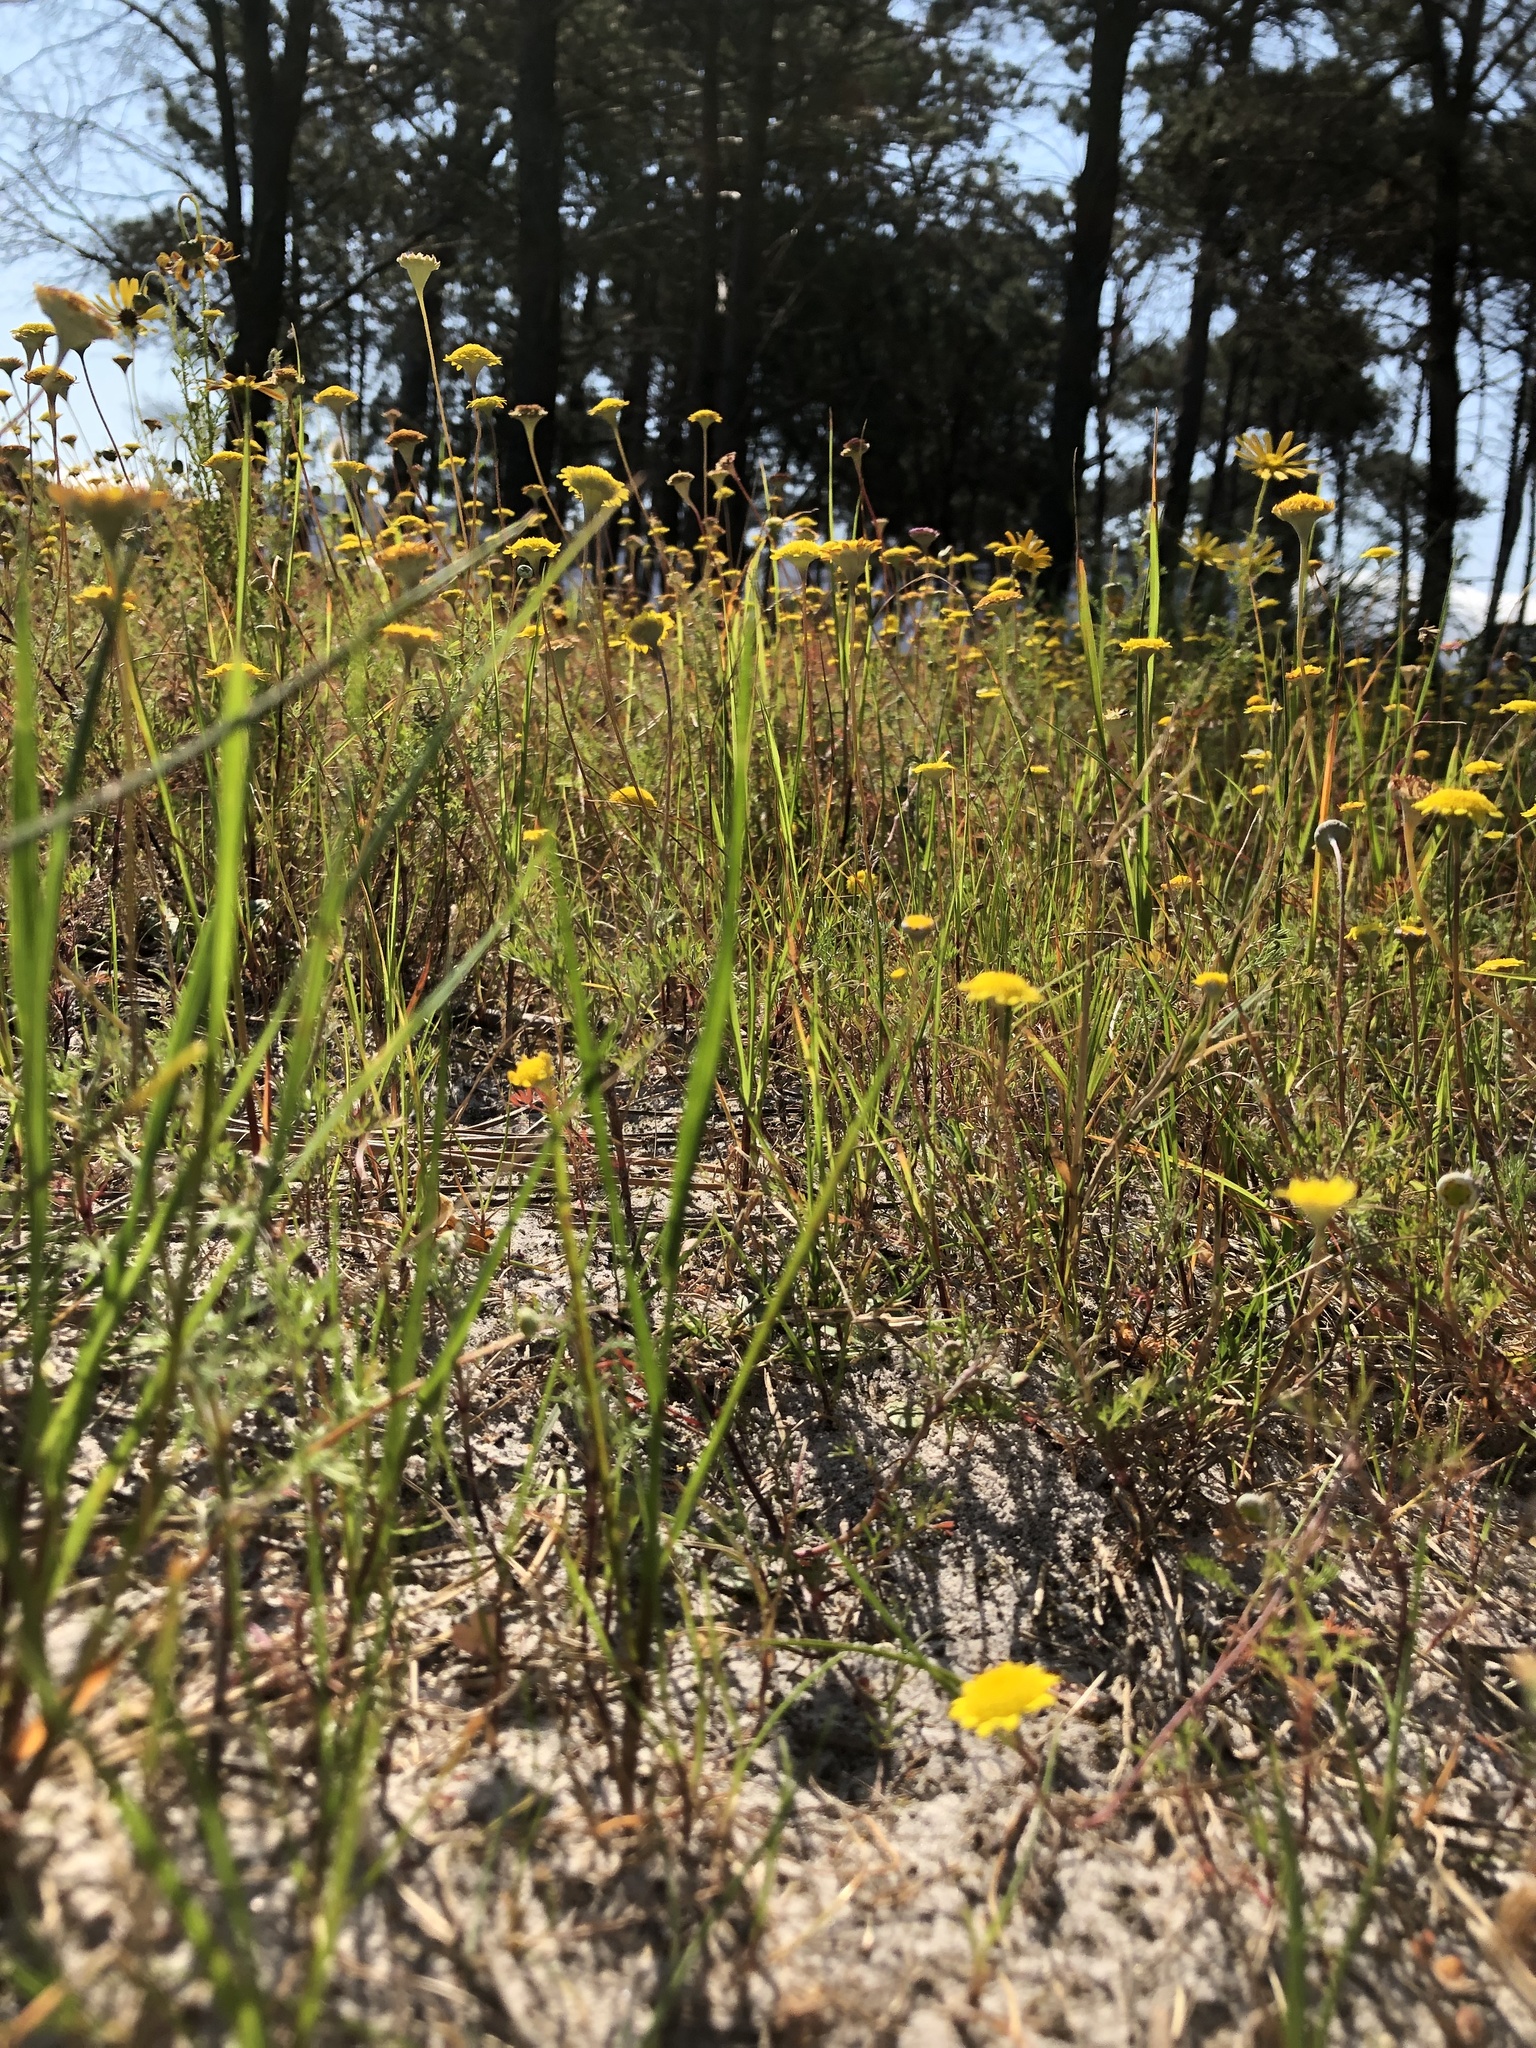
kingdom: Plantae
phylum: Tracheophyta
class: Magnoliopsida
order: Asterales
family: Asteraceae
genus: Cotula
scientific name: Cotula pruinosa
